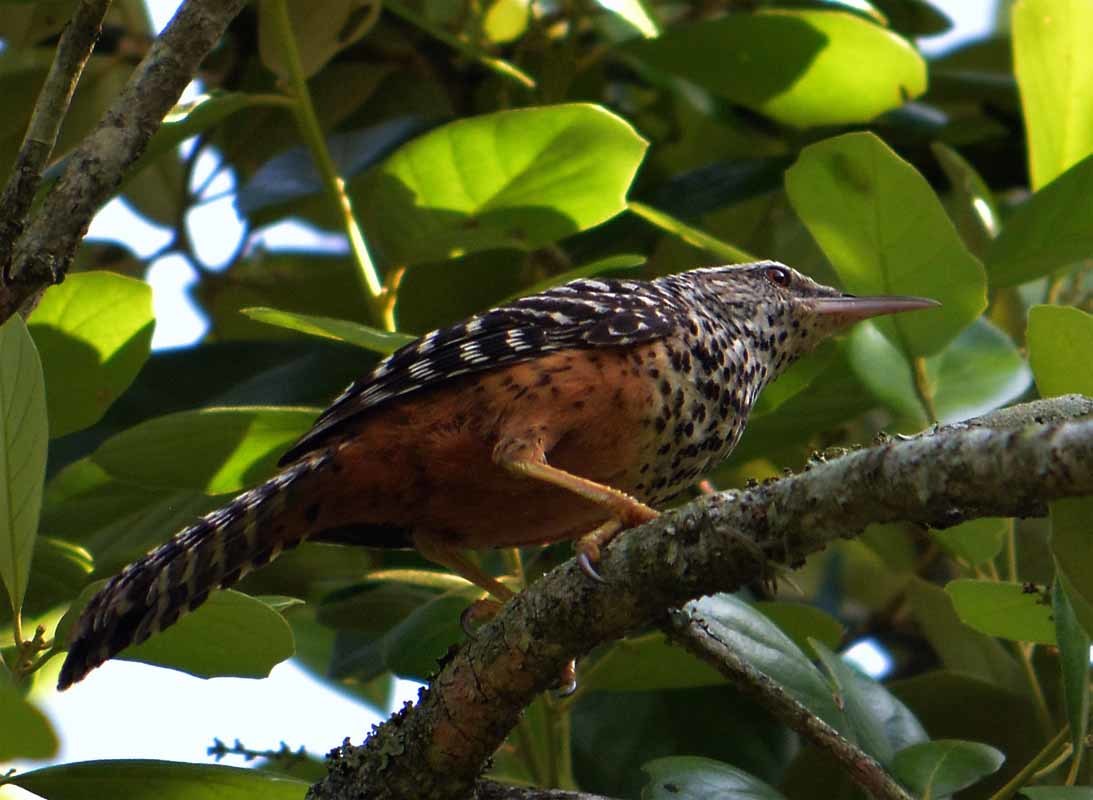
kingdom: Animalia
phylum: Chordata
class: Aves
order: Passeriformes
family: Troglodytidae
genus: Campylorhynchus
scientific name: Campylorhynchus zonatus
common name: Band-backed wren
